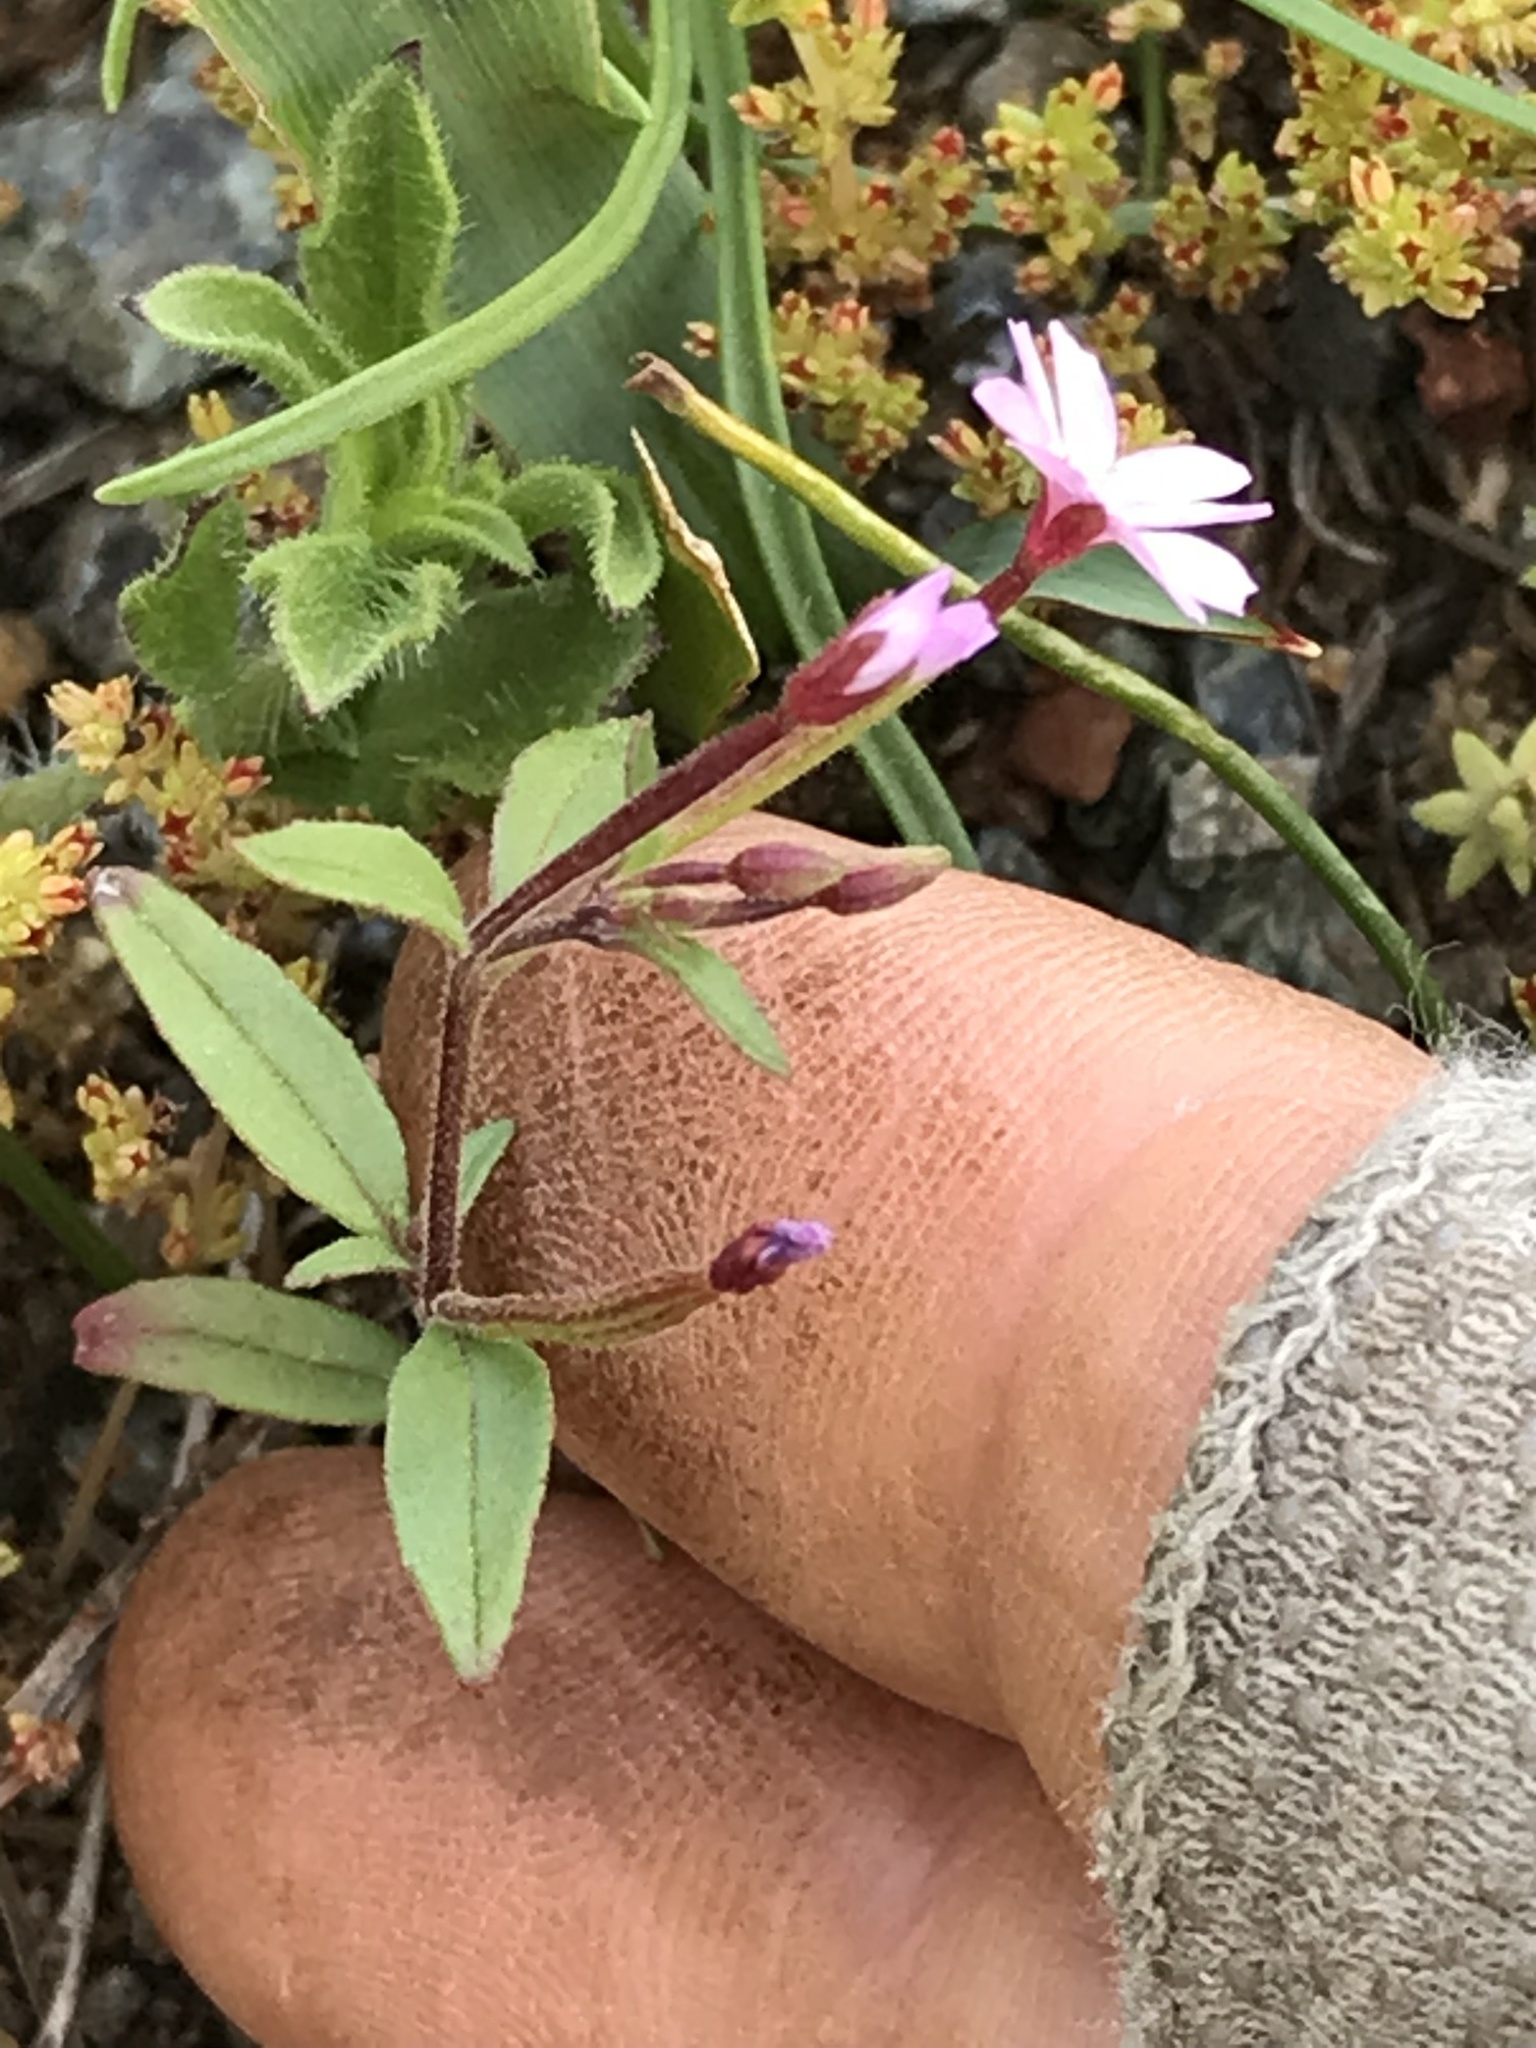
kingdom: Plantae
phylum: Tracheophyta
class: Magnoliopsida
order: Myrtales
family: Onagraceae
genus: Epilobium
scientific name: Epilobium minutum
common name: Chaparral willowherb
